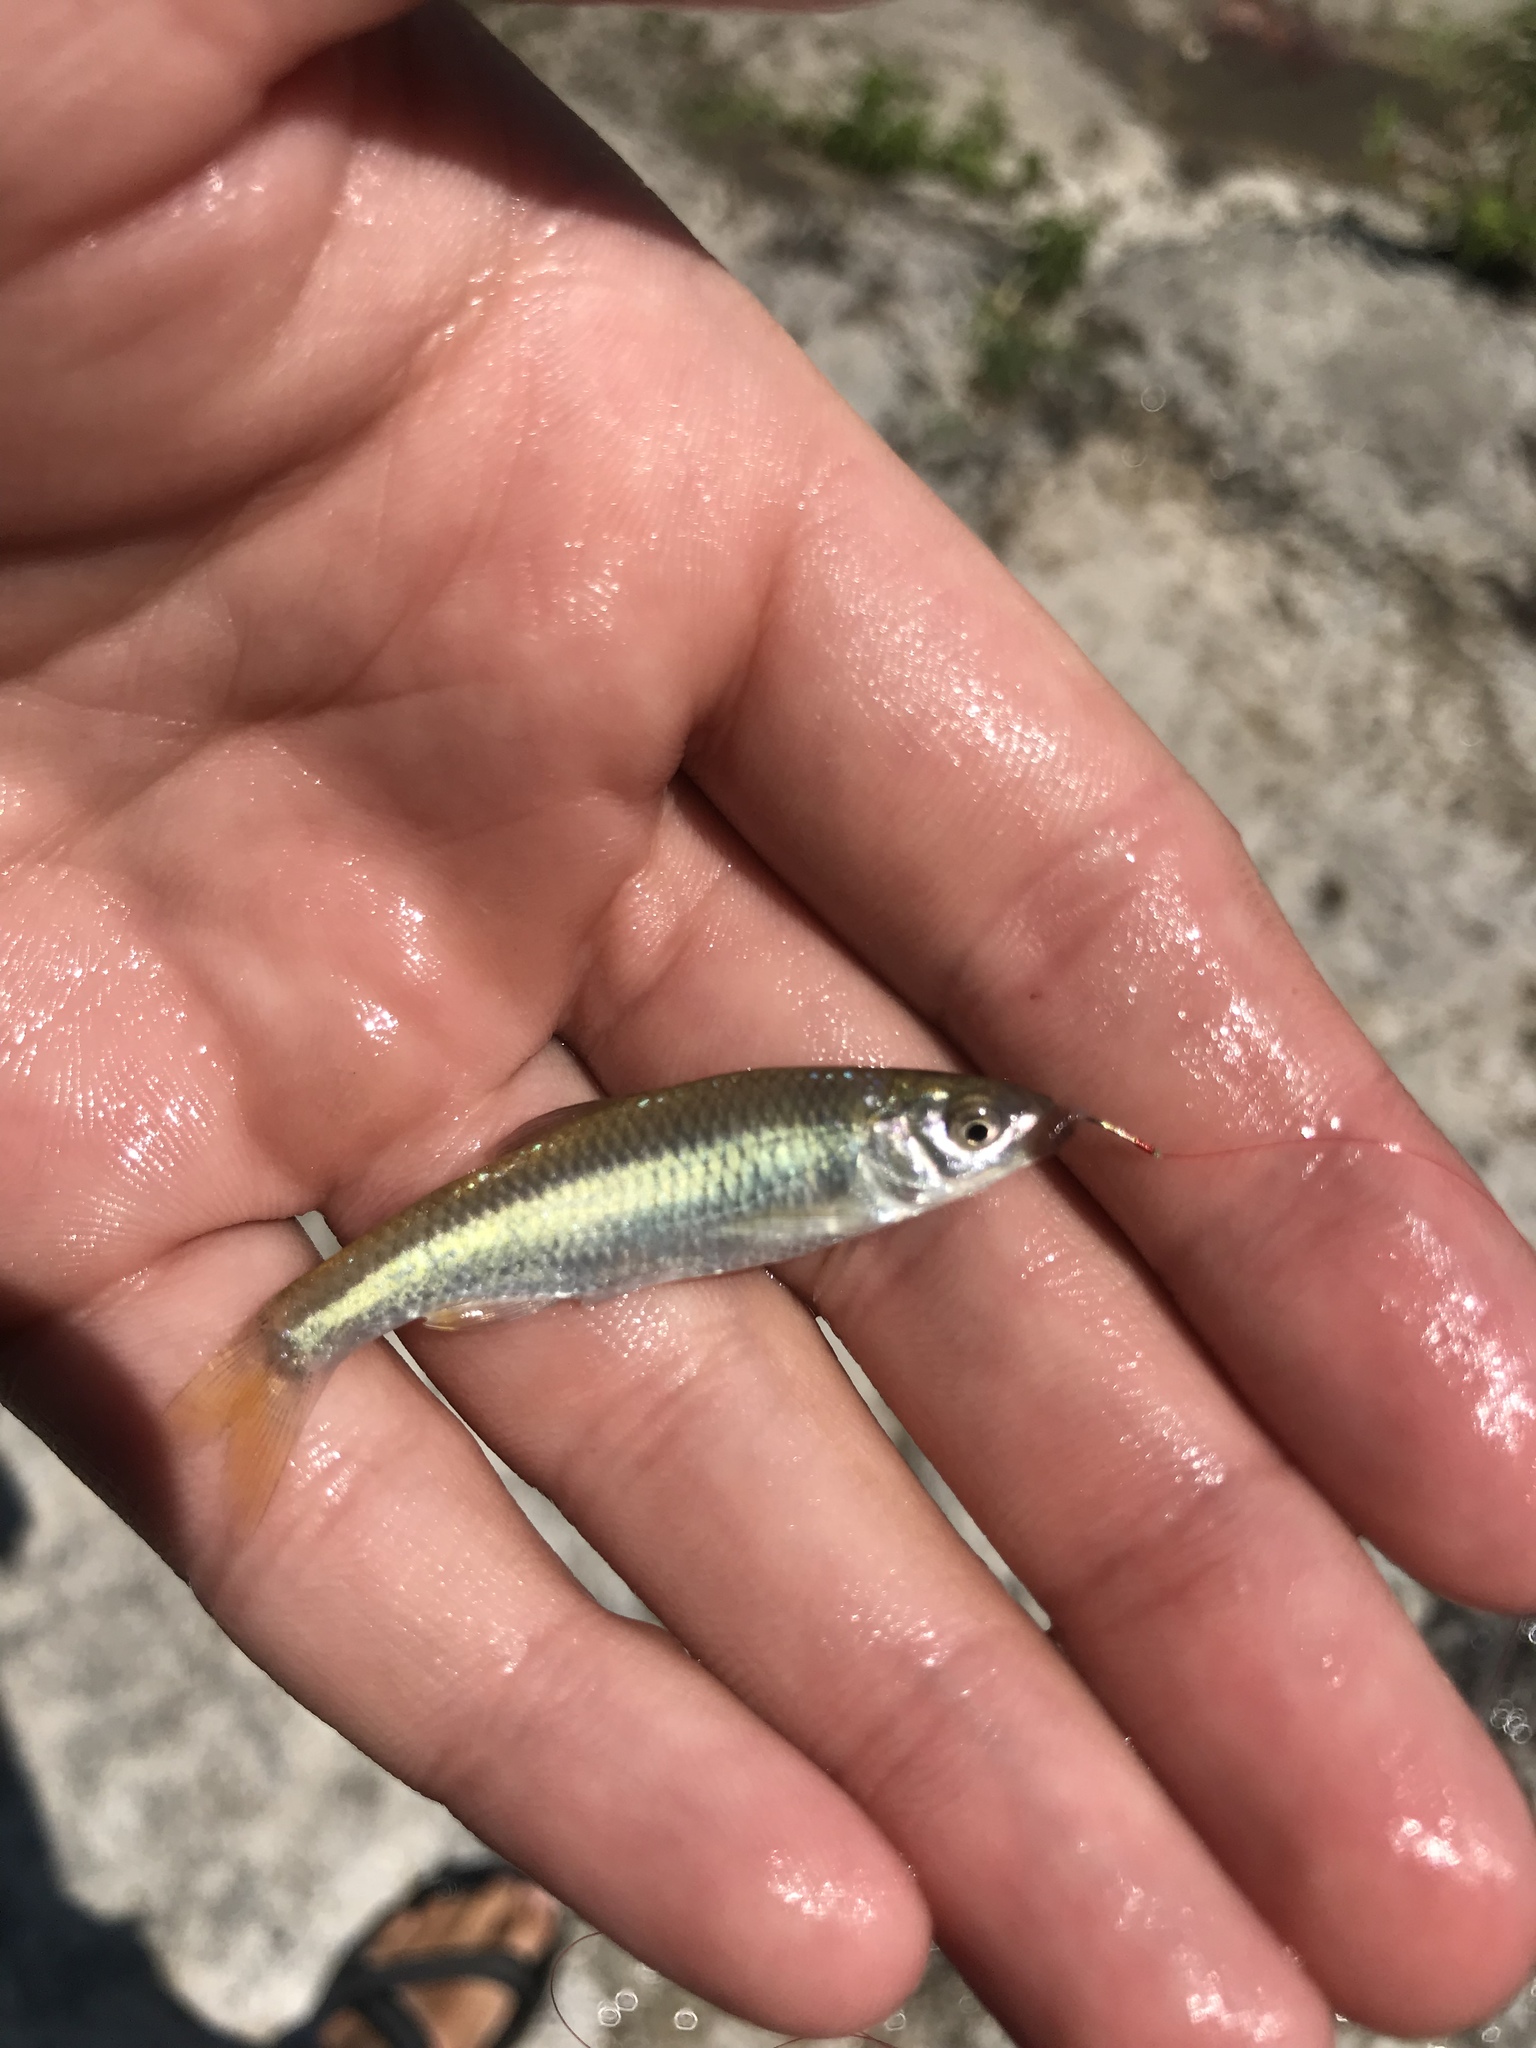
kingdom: Animalia
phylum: Chordata
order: Cypriniformes
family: Cyprinidae
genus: Cyprinella
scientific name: Cyprinella lutrensis
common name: Red shiner
